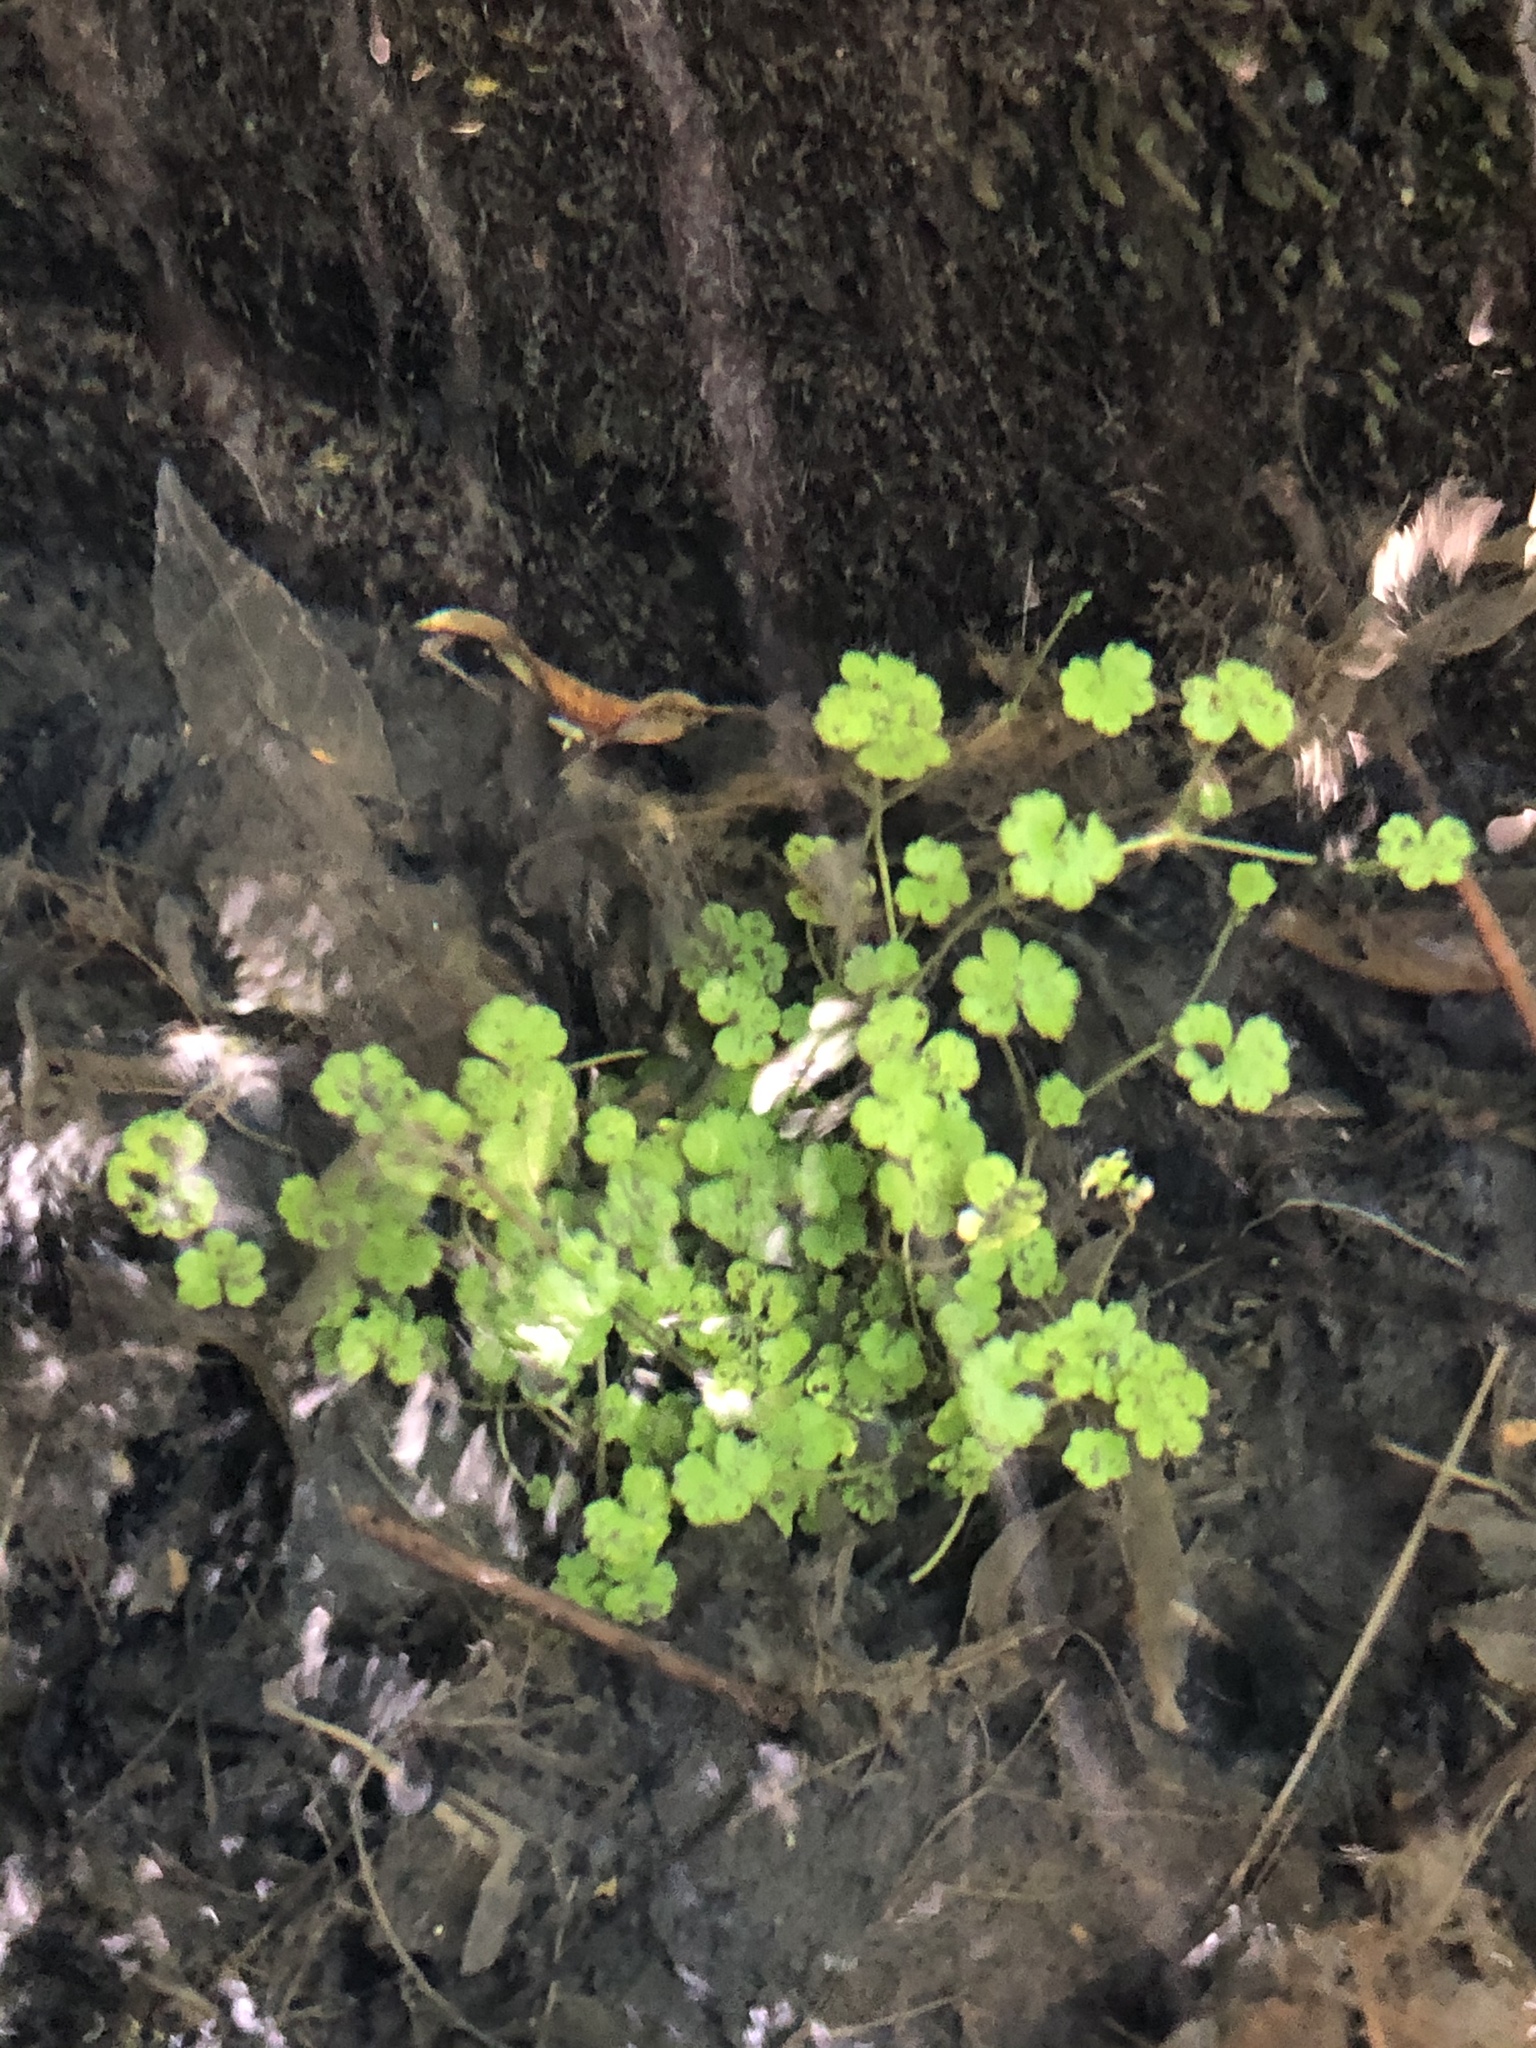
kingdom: Plantae
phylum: Tracheophyta
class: Magnoliopsida
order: Apiales
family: Araliaceae
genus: Hydrocotyle
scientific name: Hydrocotyle elongata
